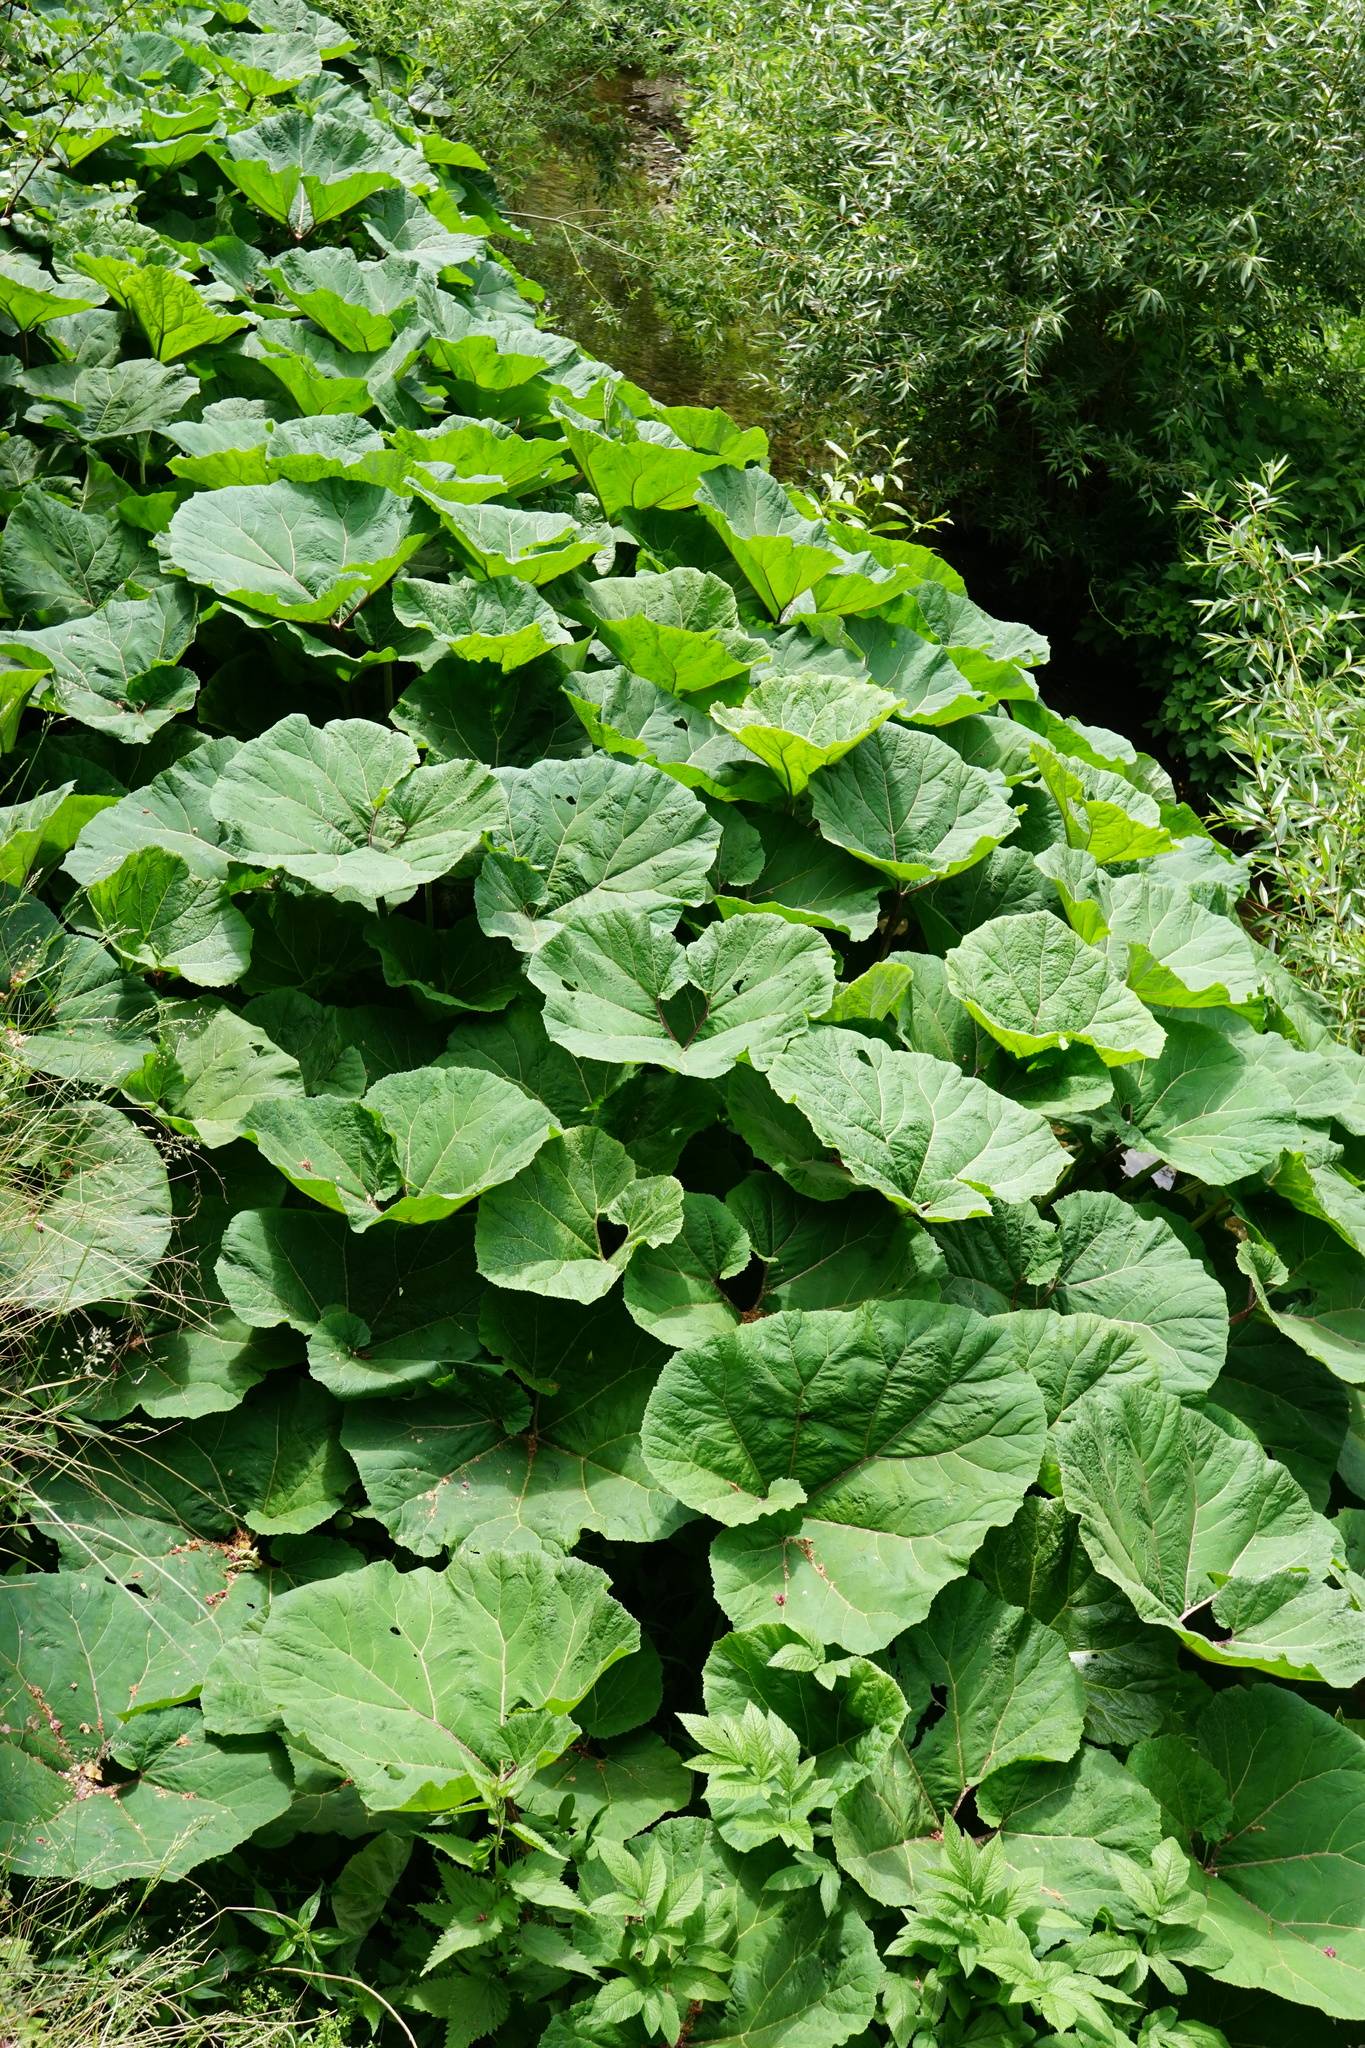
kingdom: Plantae
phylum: Tracheophyta
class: Magnoliopsida
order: Asterales
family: Asteraceae
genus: Petasites
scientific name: Petasites hybridus
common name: Butterbur
